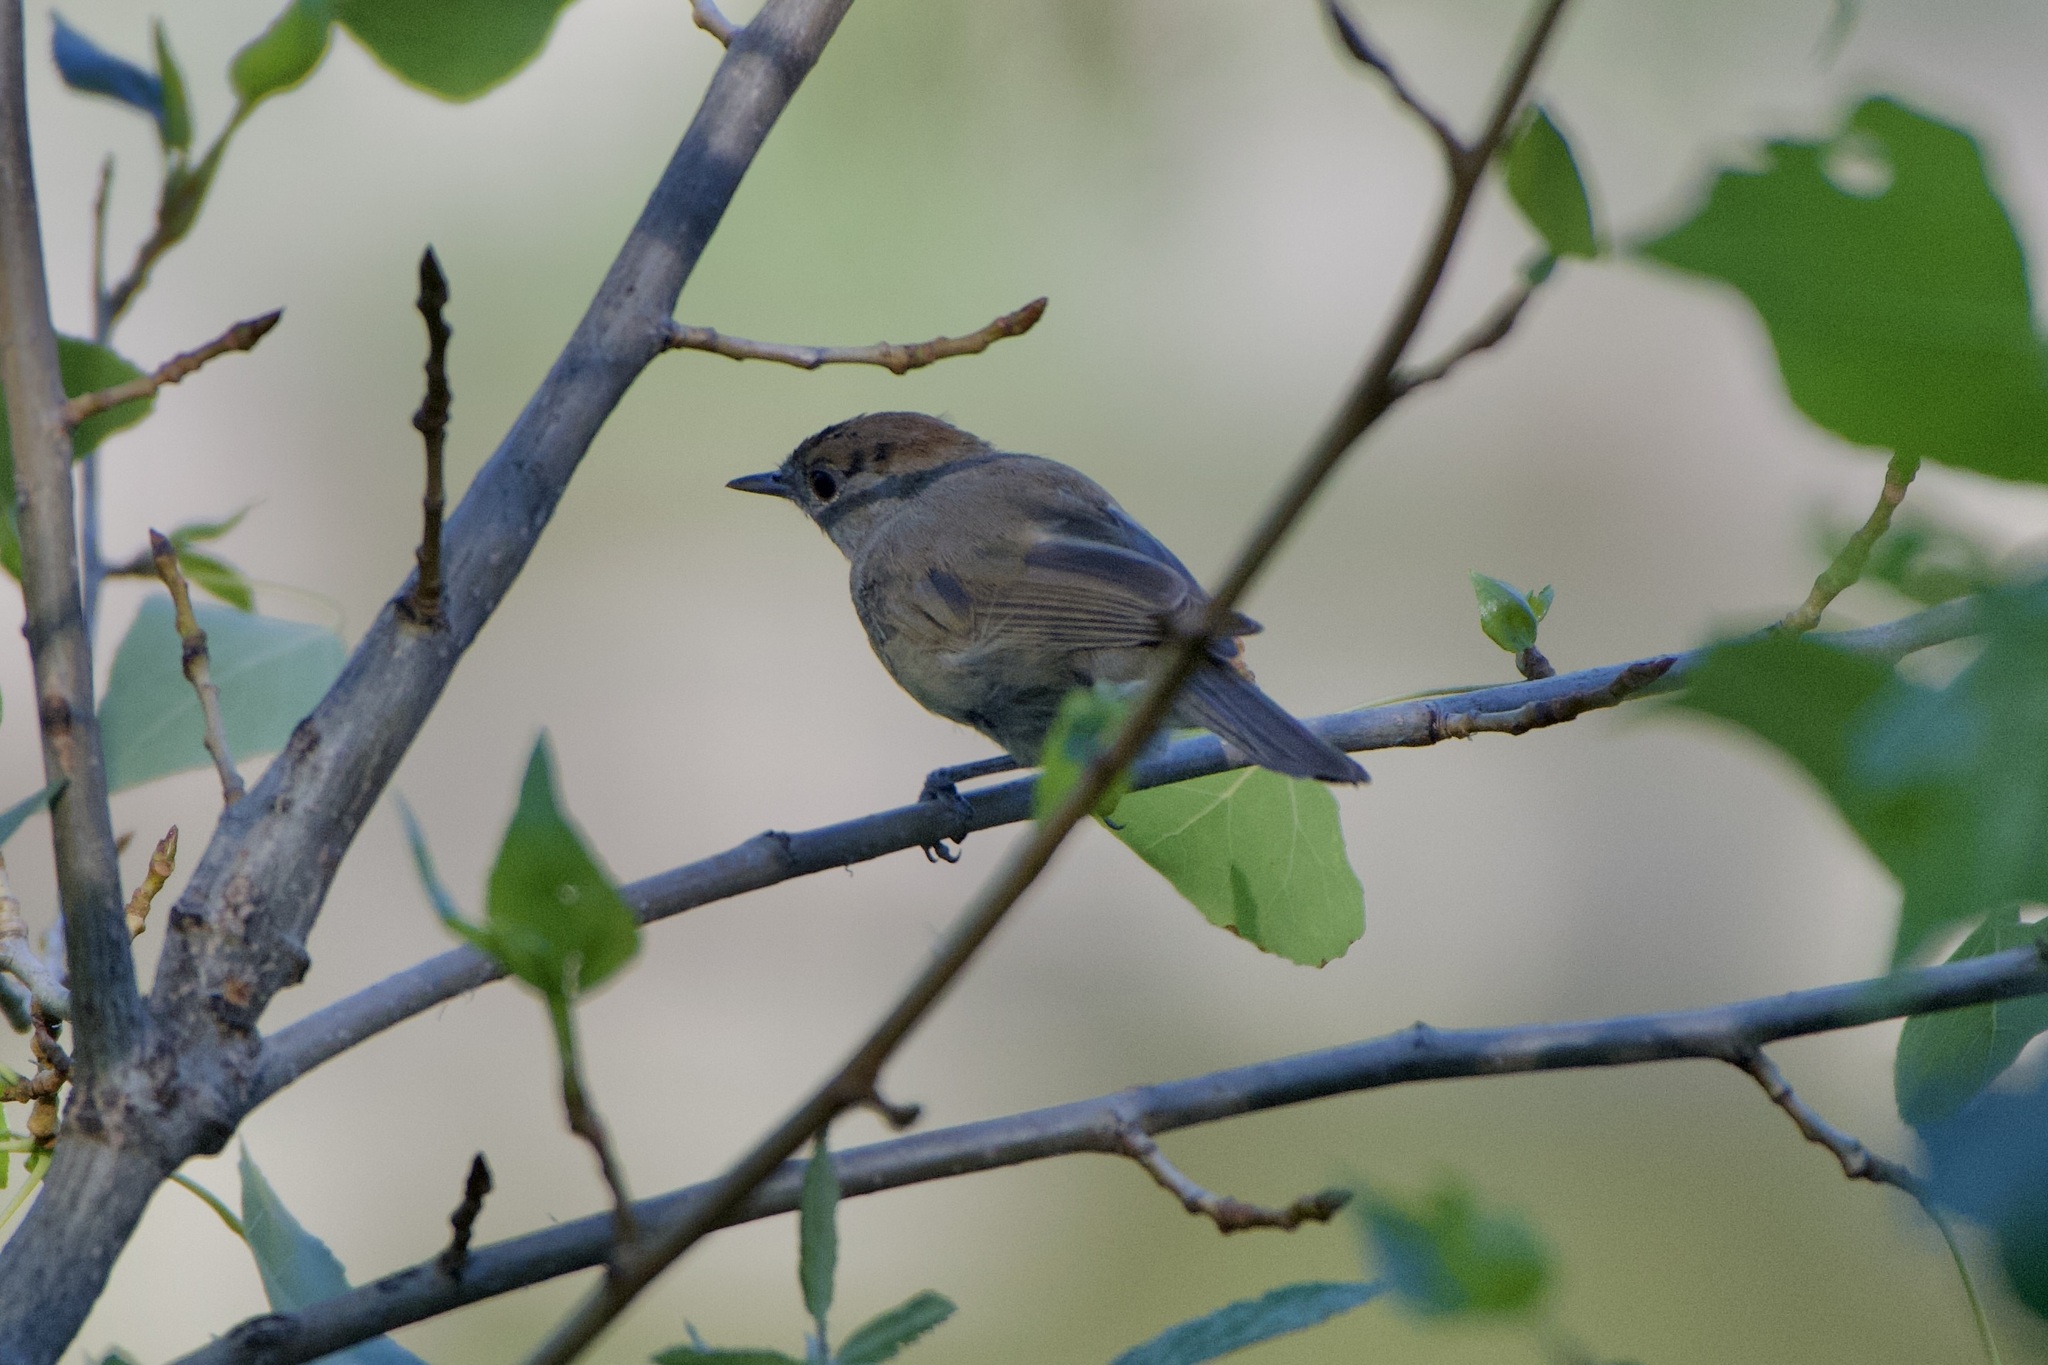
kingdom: Animalia
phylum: Chordata
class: Aves
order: Passeriformes
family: Sylviidae
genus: Sylvia
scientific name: Sylvia atricapilla
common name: Eurasian blackcap
